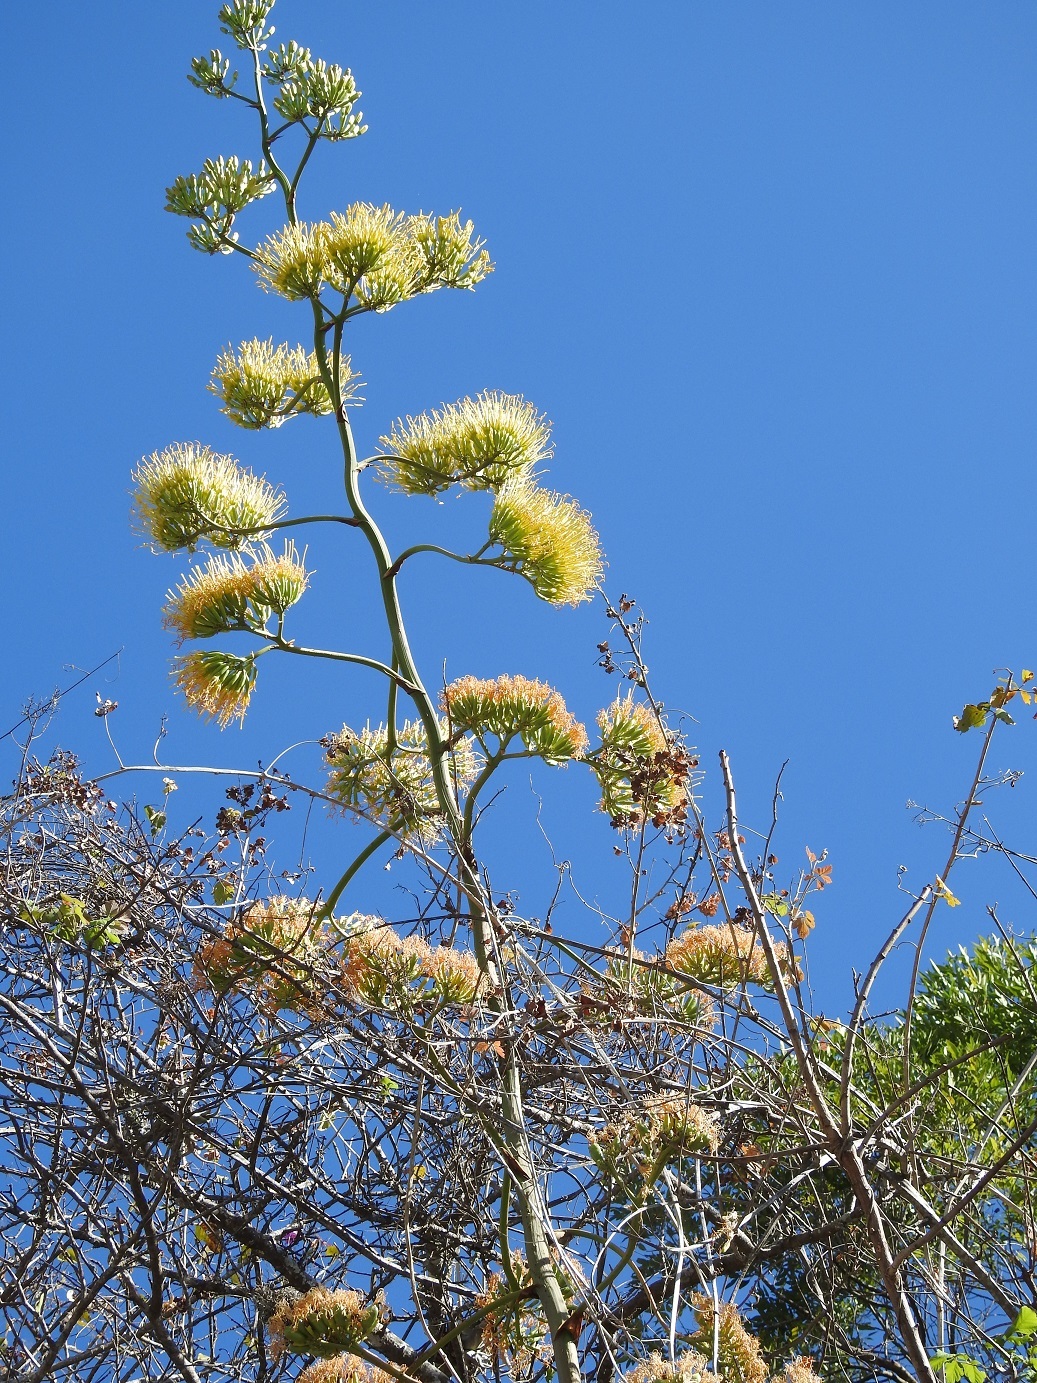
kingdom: Plantae
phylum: Tracheophyta
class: Liliopsida
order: Asparagales
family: Asparagaceae
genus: Agave
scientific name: Agave kewensis
